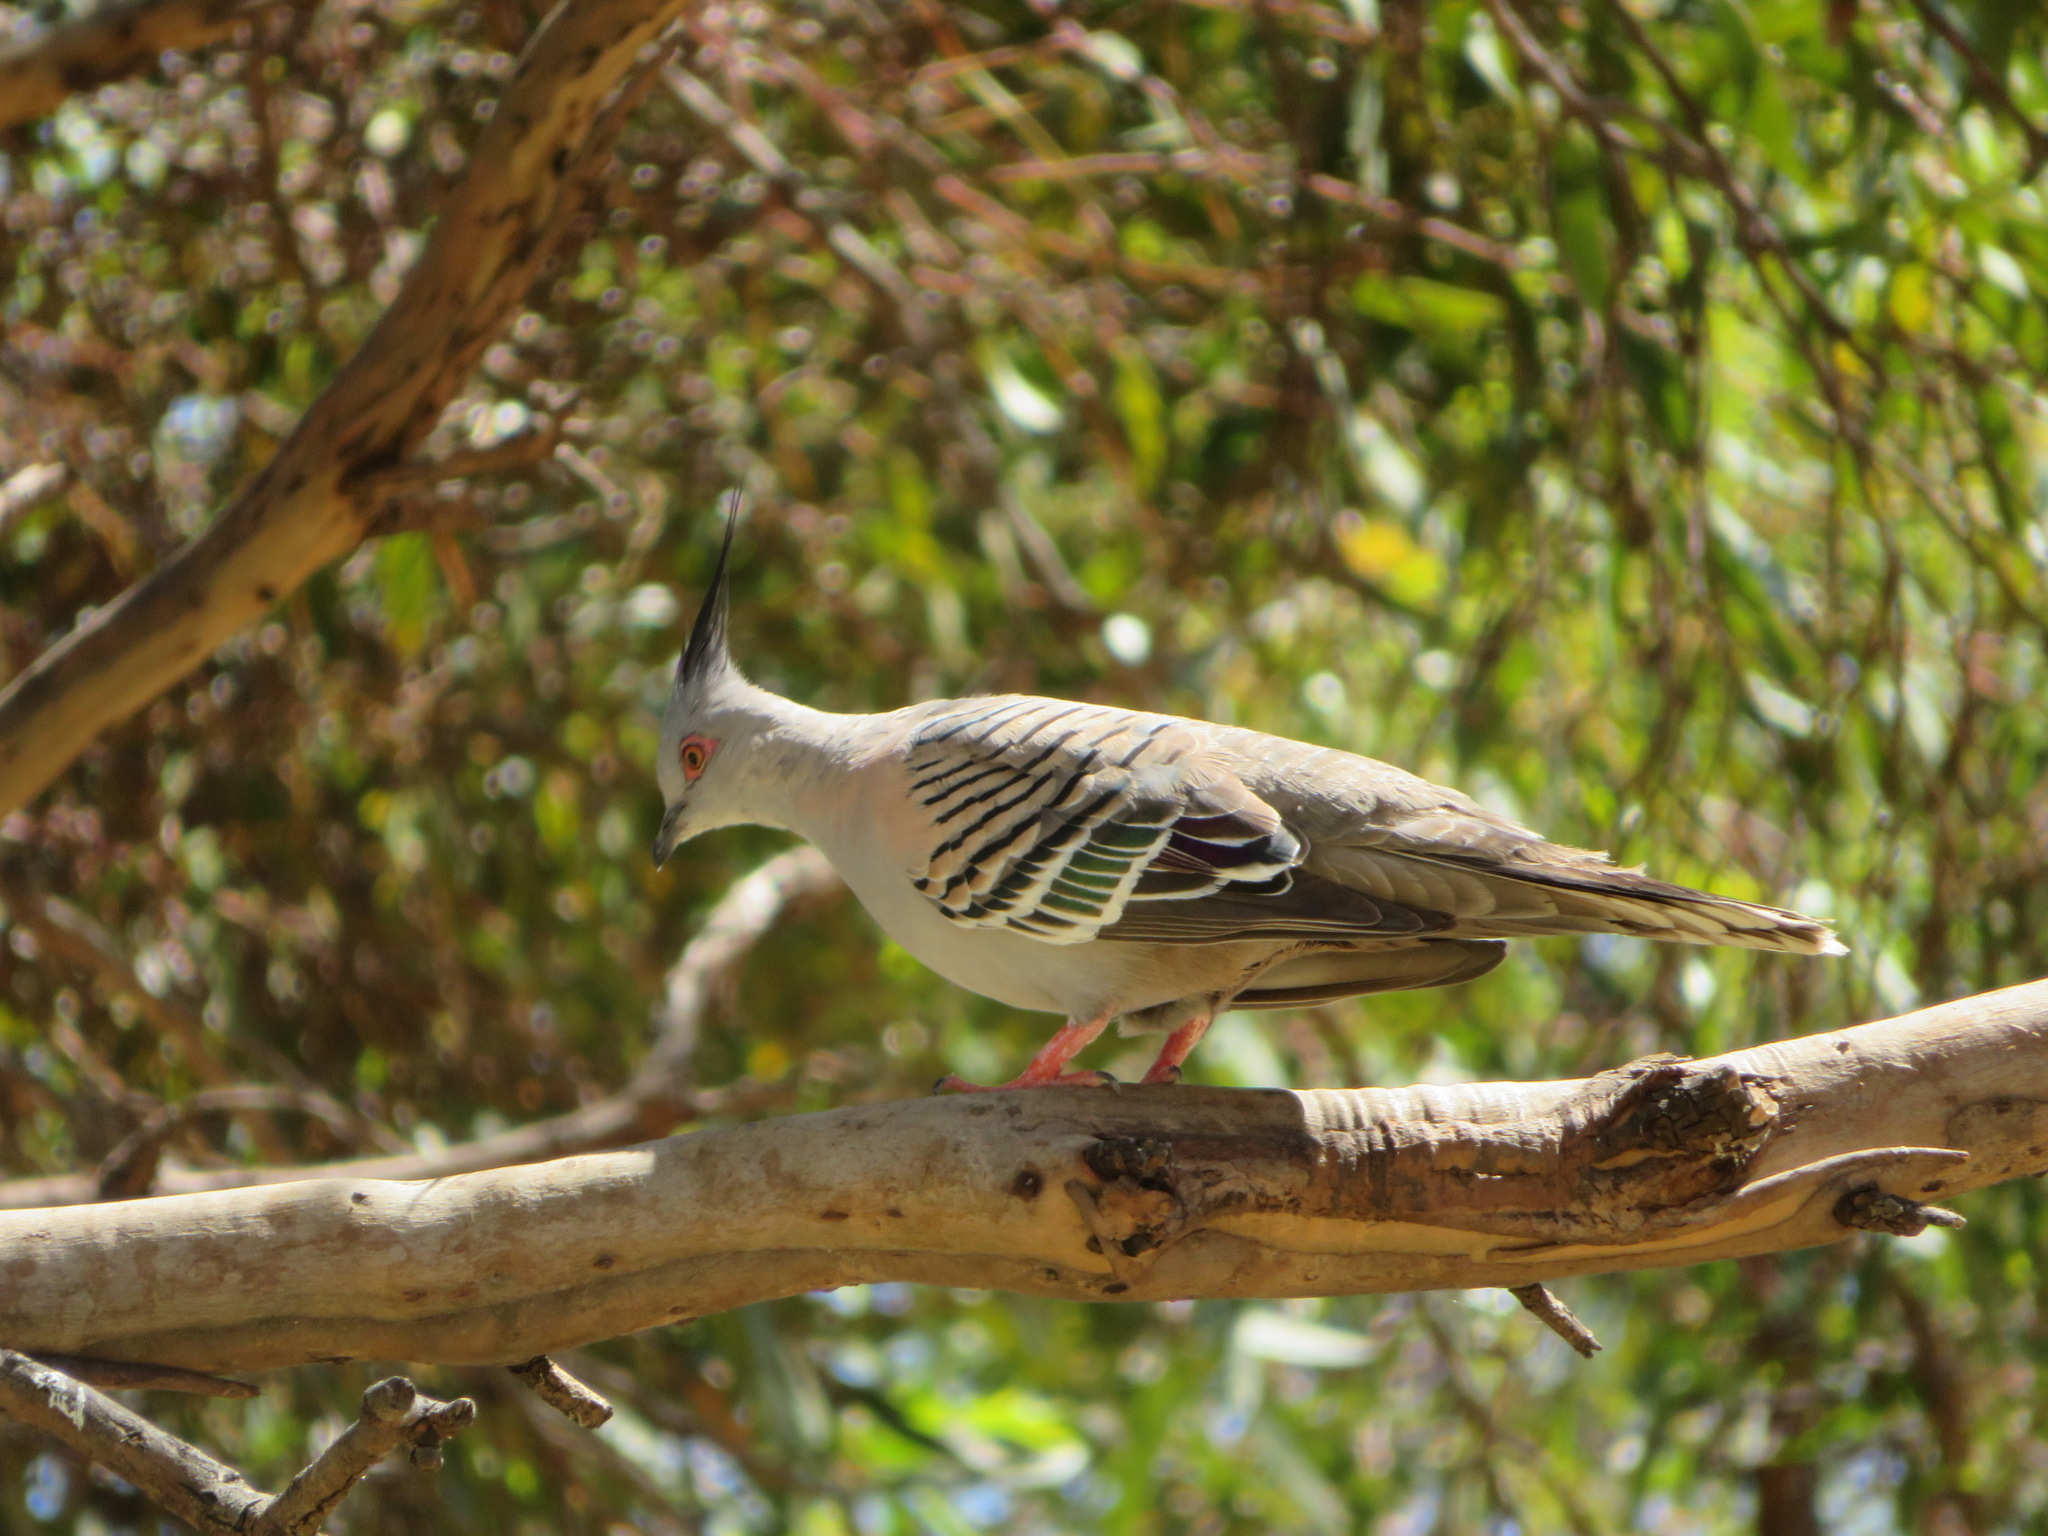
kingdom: Animalia
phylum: Chordata
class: Aves
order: Columbiformes
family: Columbidae
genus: Ocyphaps
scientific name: Ocyphaps lophotes
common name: Crested pigeon
